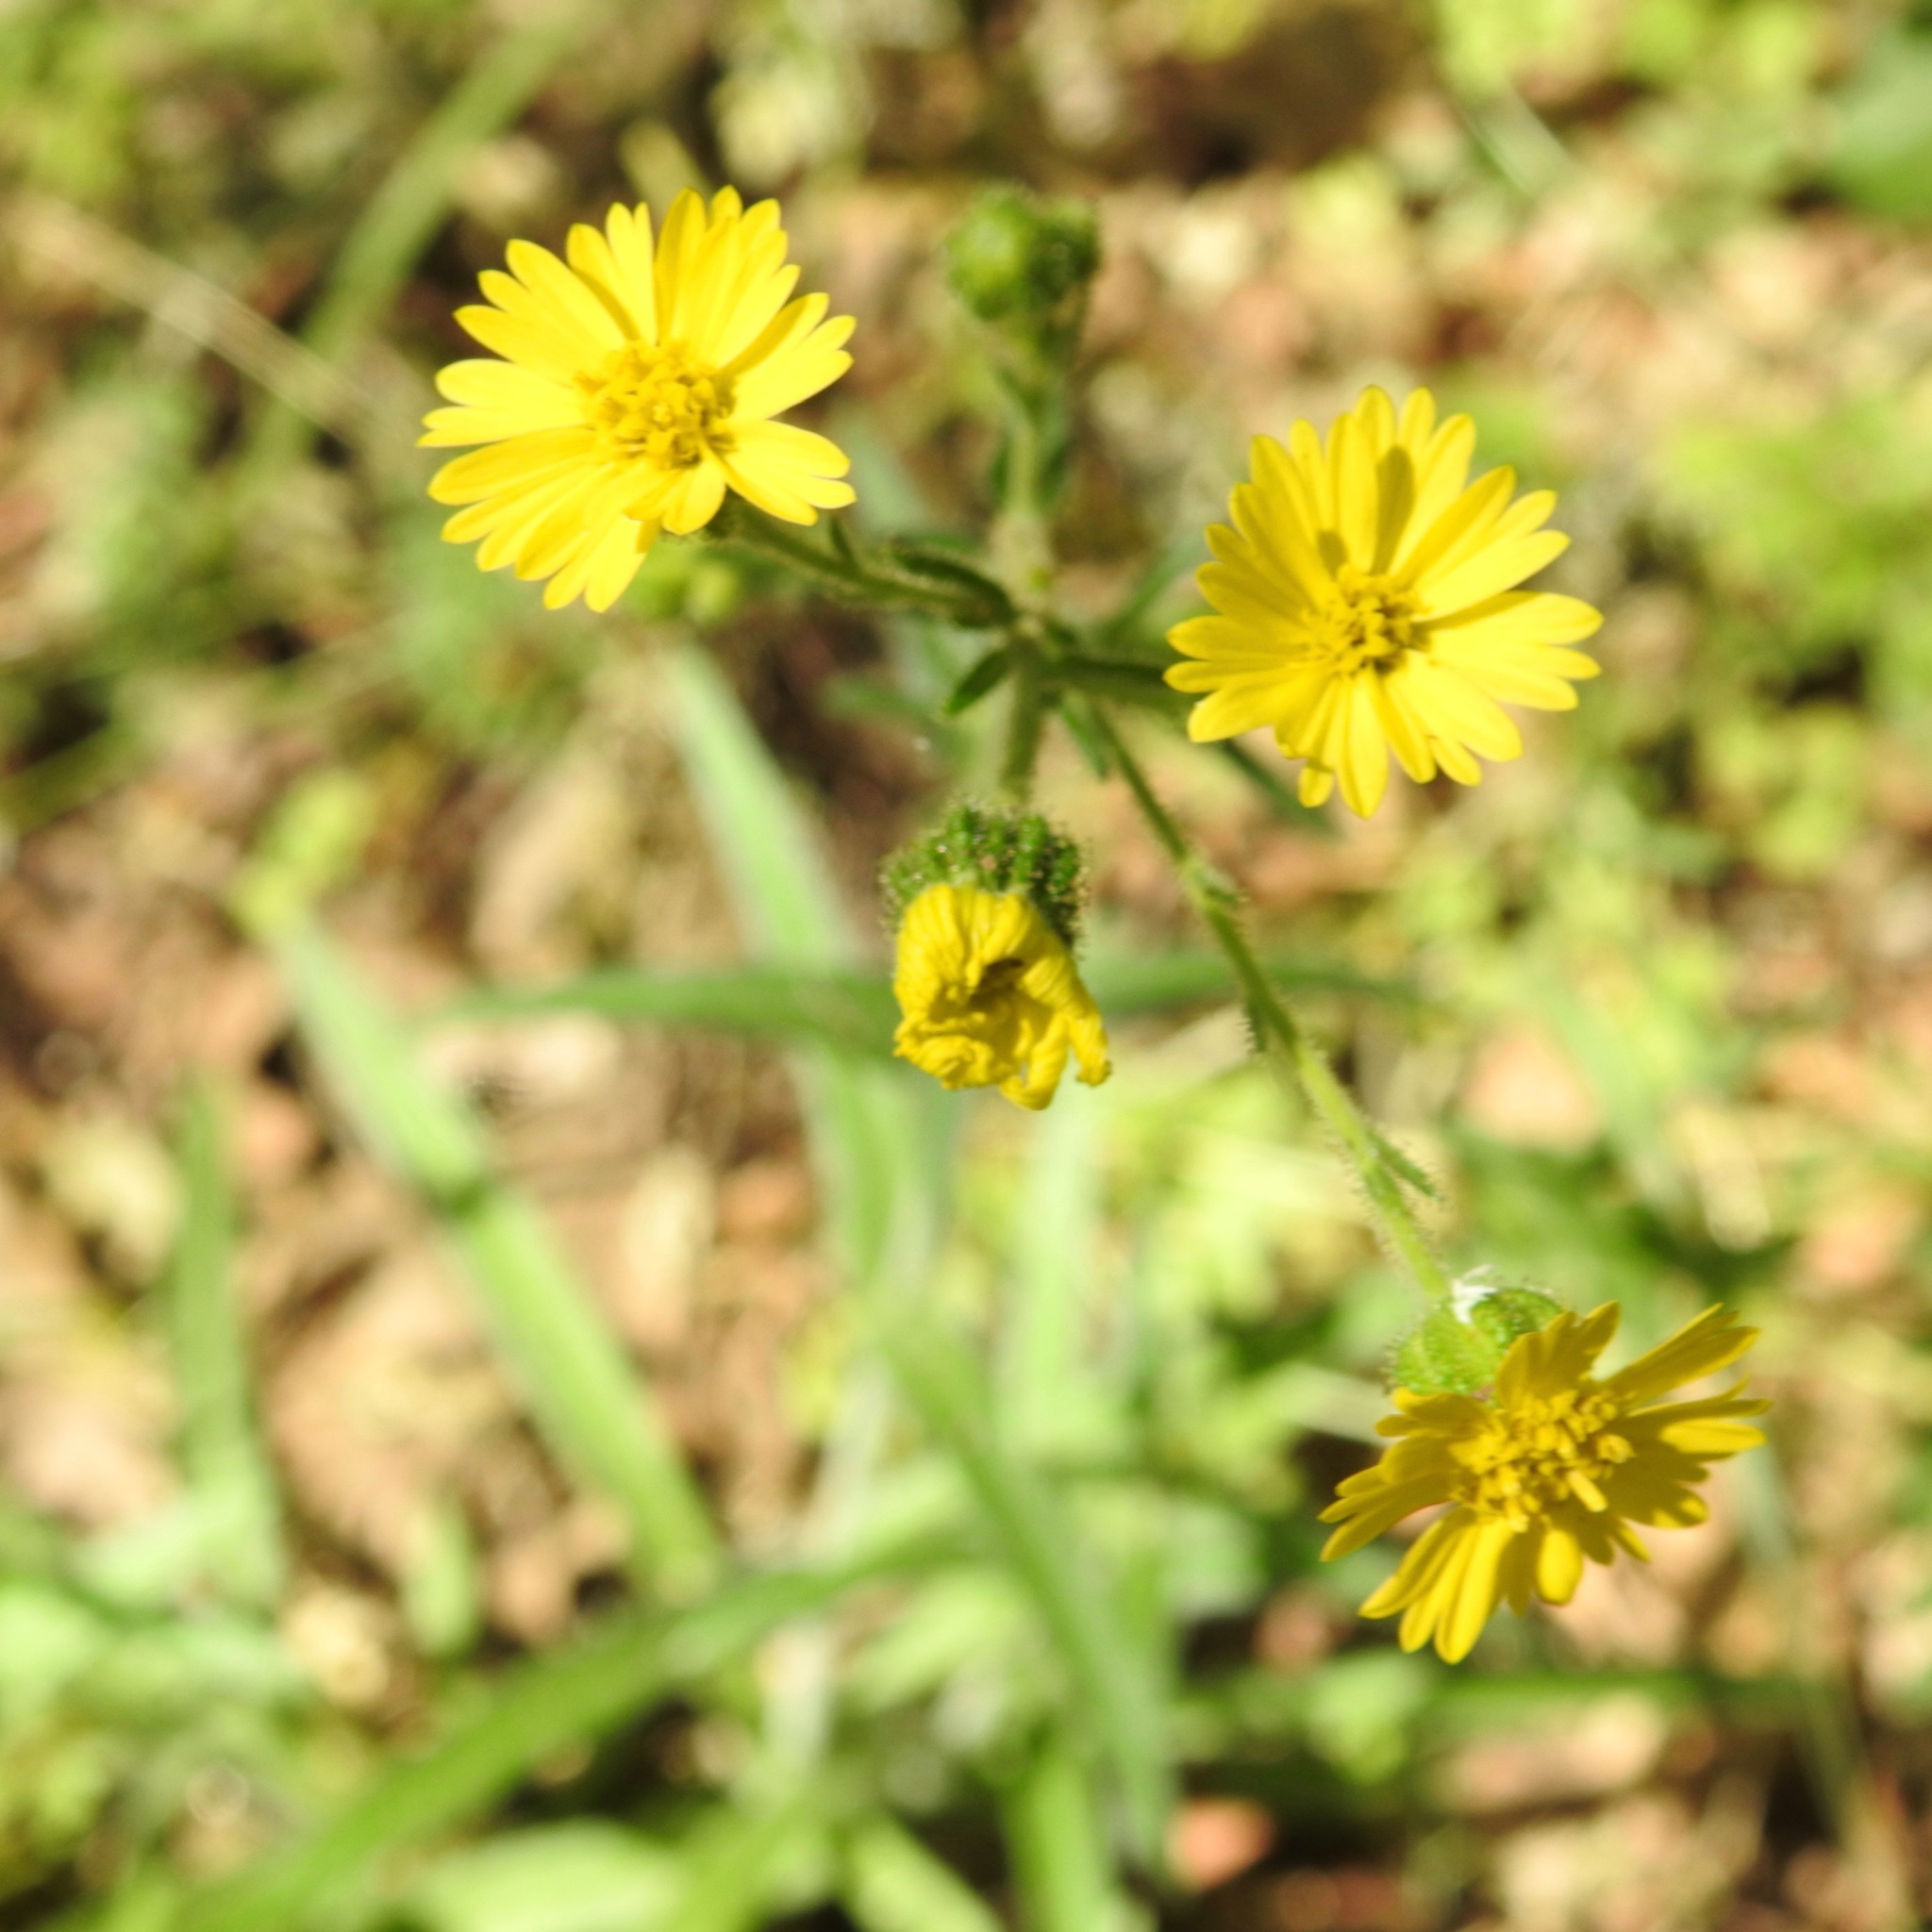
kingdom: Plantae
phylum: Tracheophyta
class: Magnoliopsida
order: Asterales
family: Asteraceae
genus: Anisocarpus
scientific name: Anisocarpus madioides
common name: Woodland madia
